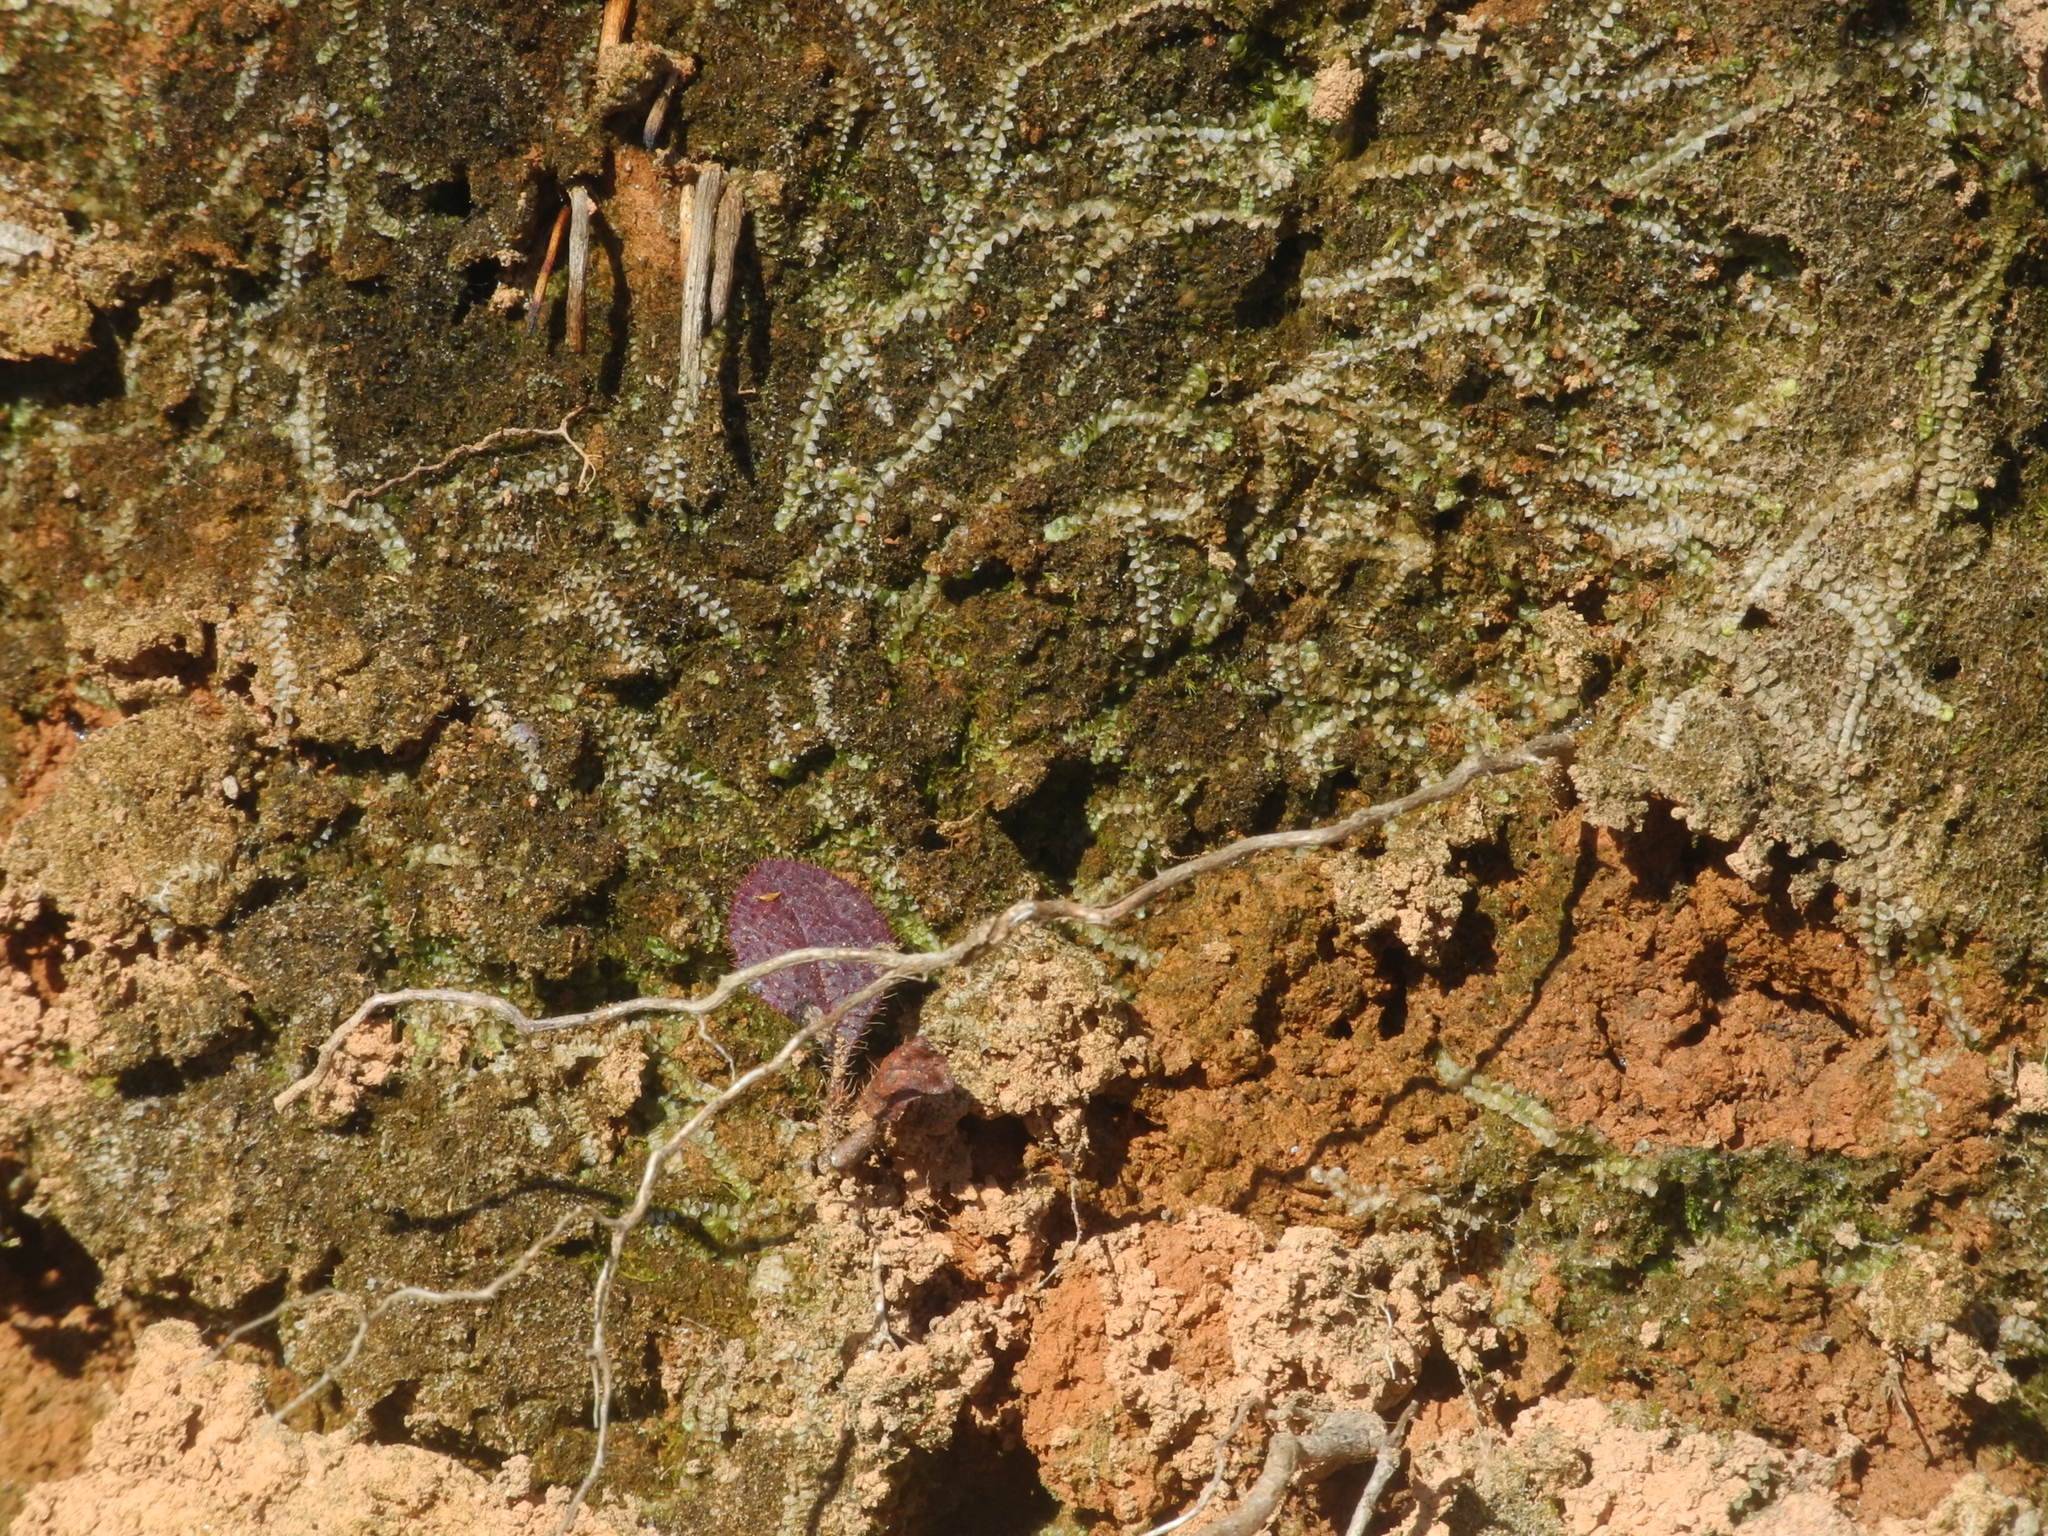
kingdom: Plantae
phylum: Marchantiophyta
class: Jungermanniopsida
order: Jungermanniales
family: Calypogeiaceae
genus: Calypogeia
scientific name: Calypogeia muelleriana
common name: Mueller s pouchwort
